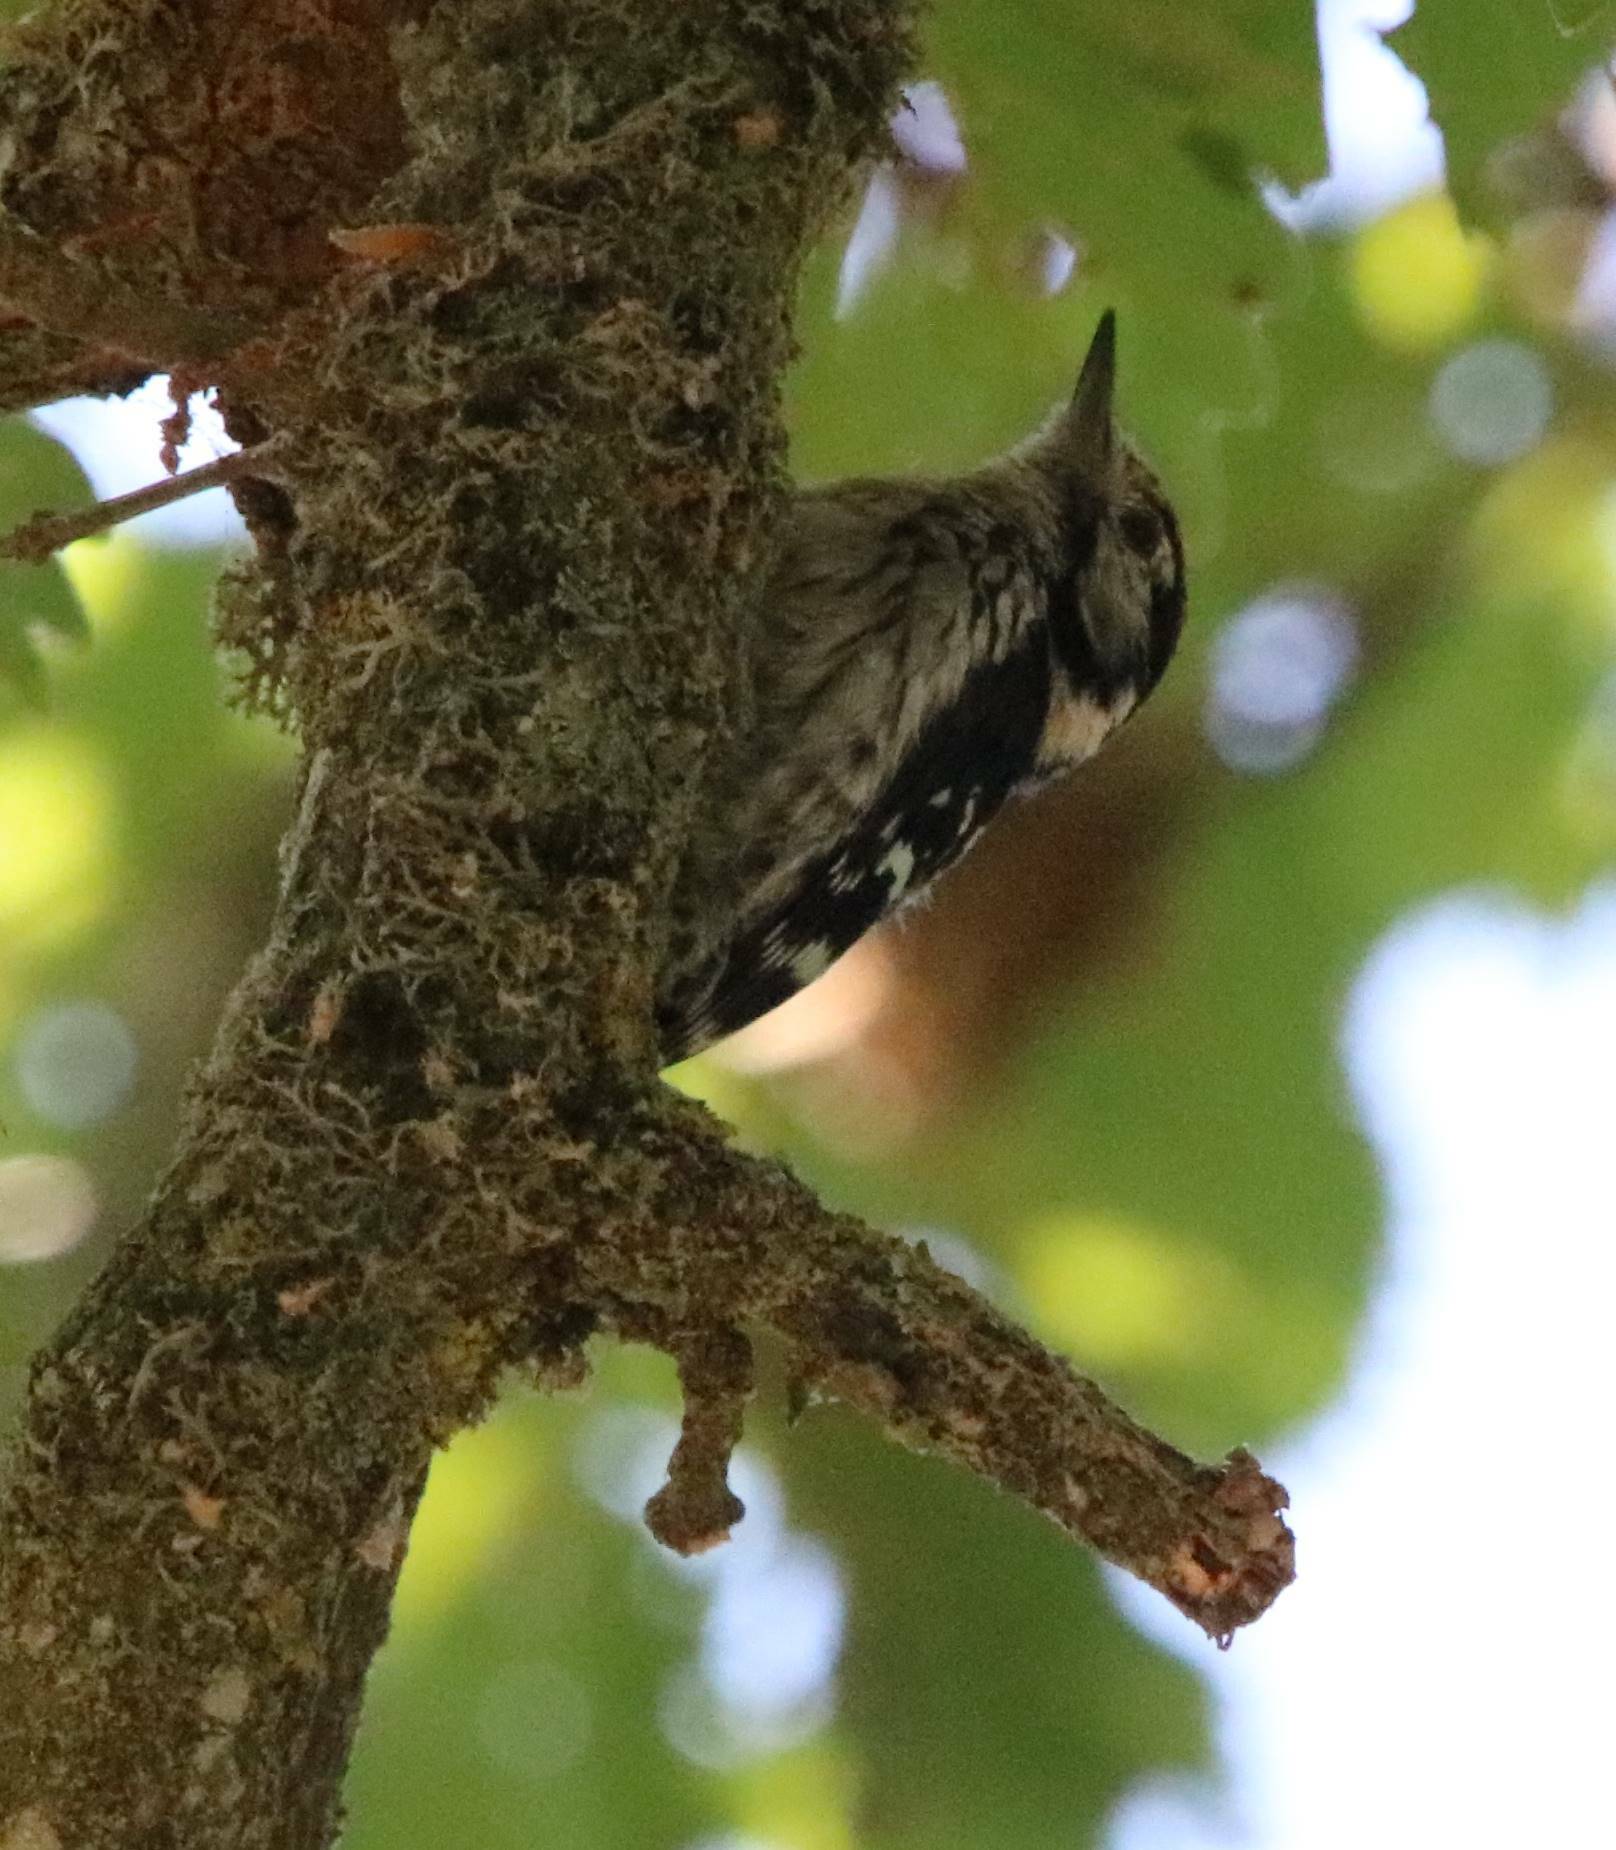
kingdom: Animalia
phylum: Chordata
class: Aves
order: Piciformes
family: Picidae
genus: Dryobates
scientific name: Dryobates minor
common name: Lesser spotted woodpecker
